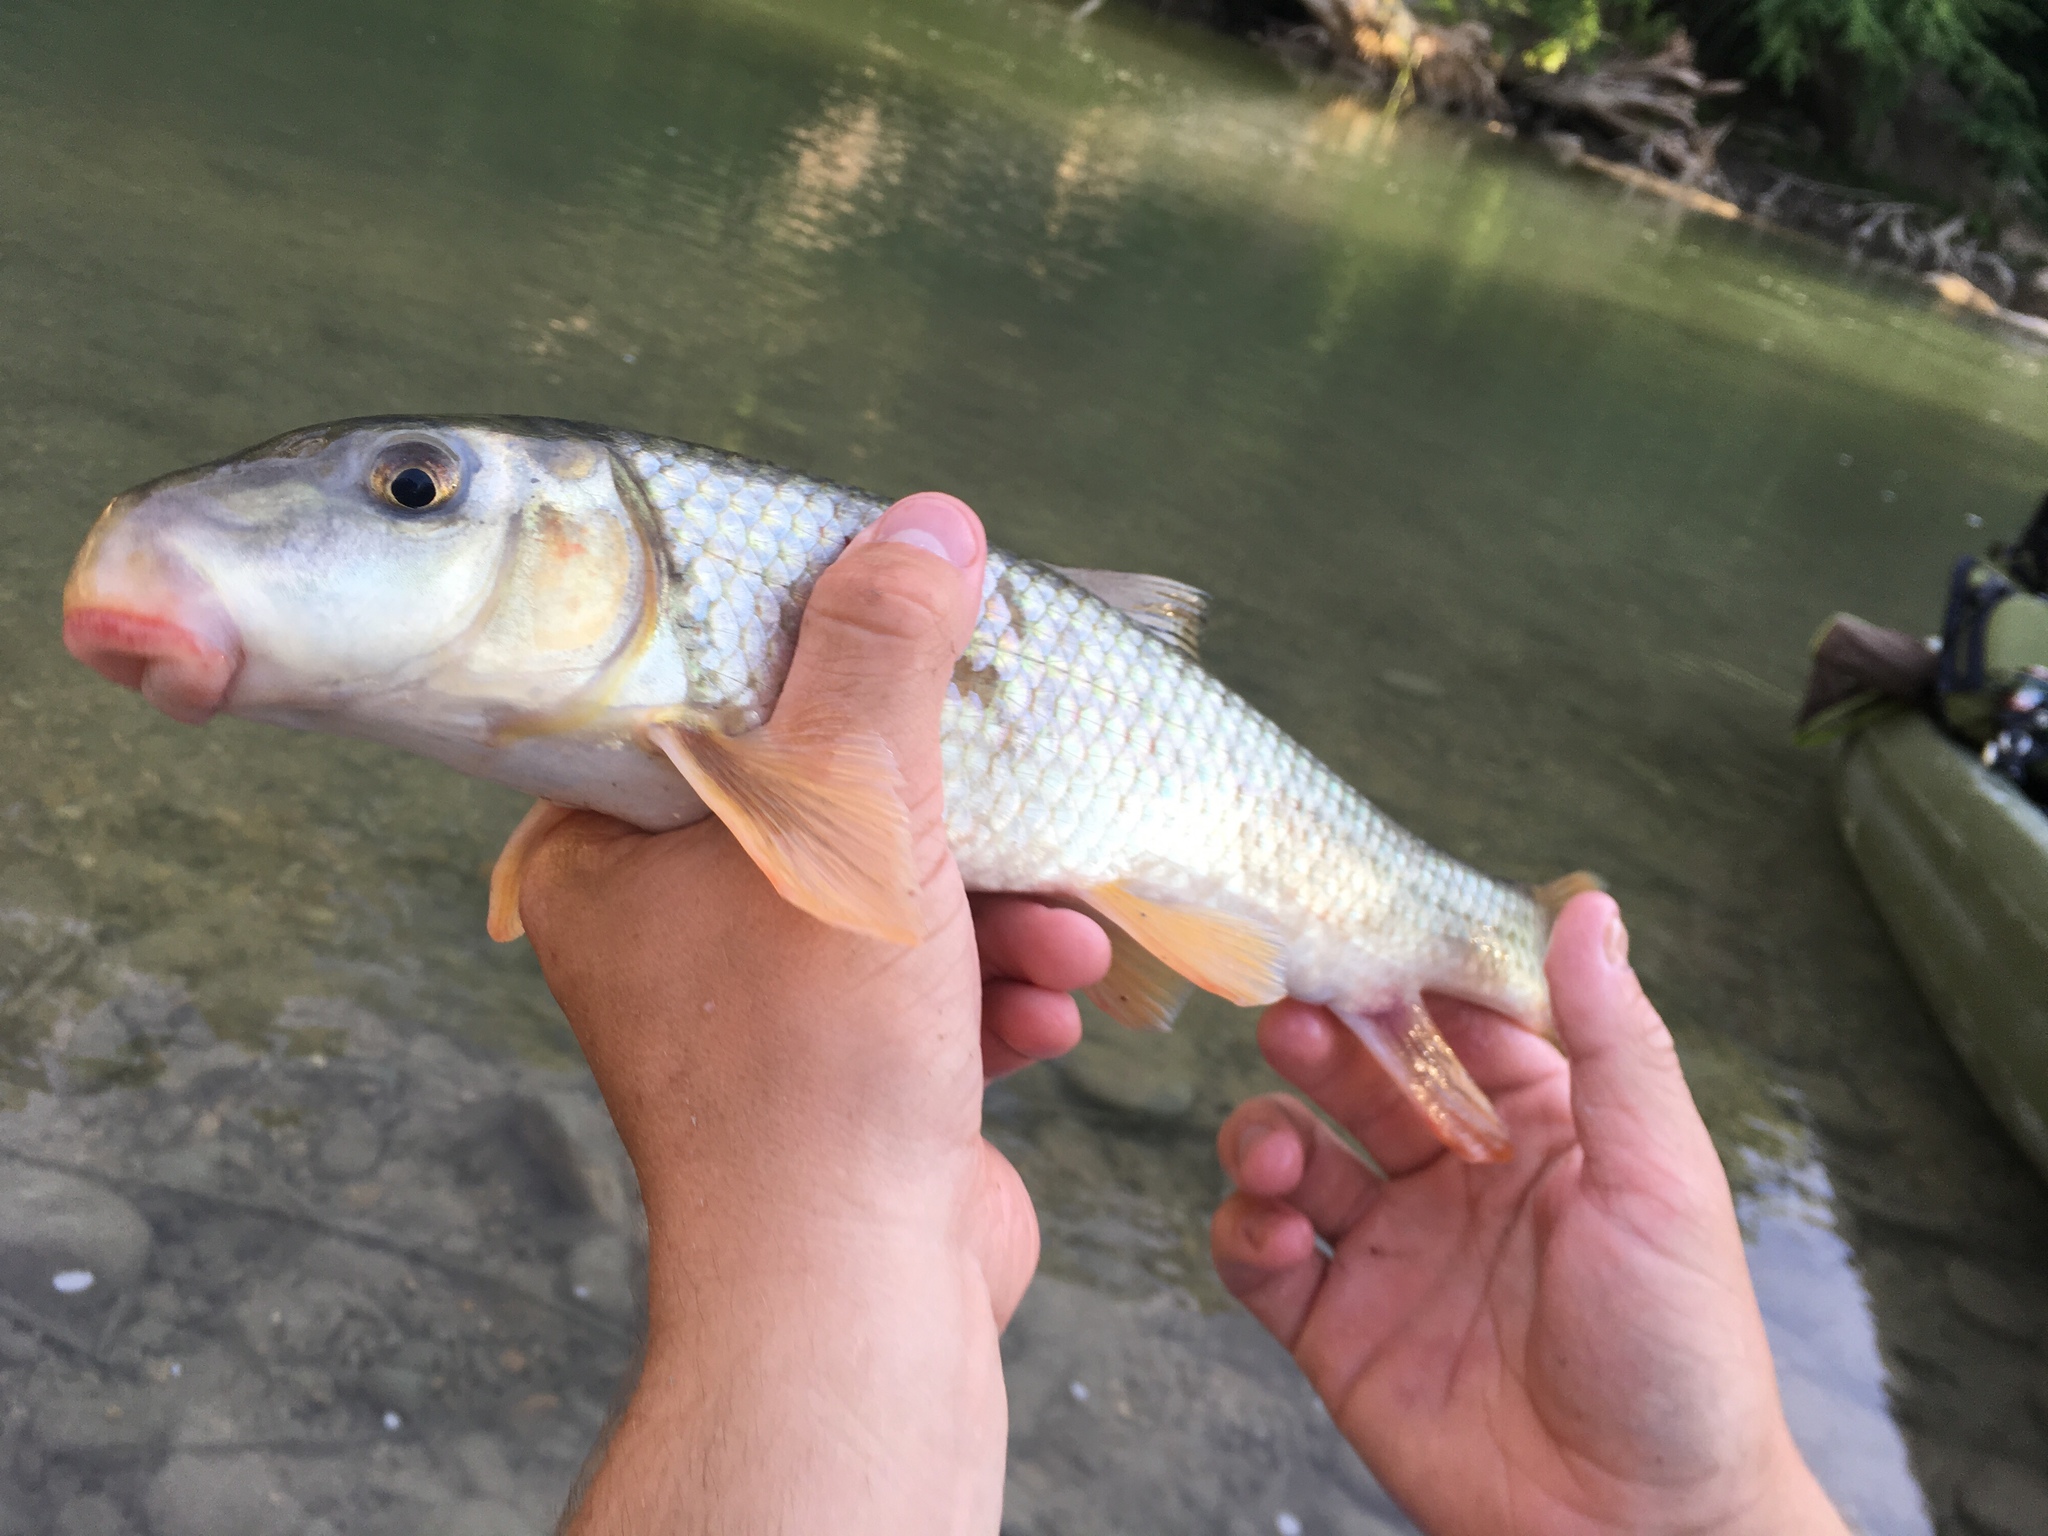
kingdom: Animalia
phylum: Chordata
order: Cypriniformes
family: Catostomidae
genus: Moxostoma
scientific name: Moxostoma congestum
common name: Gray redhorse
